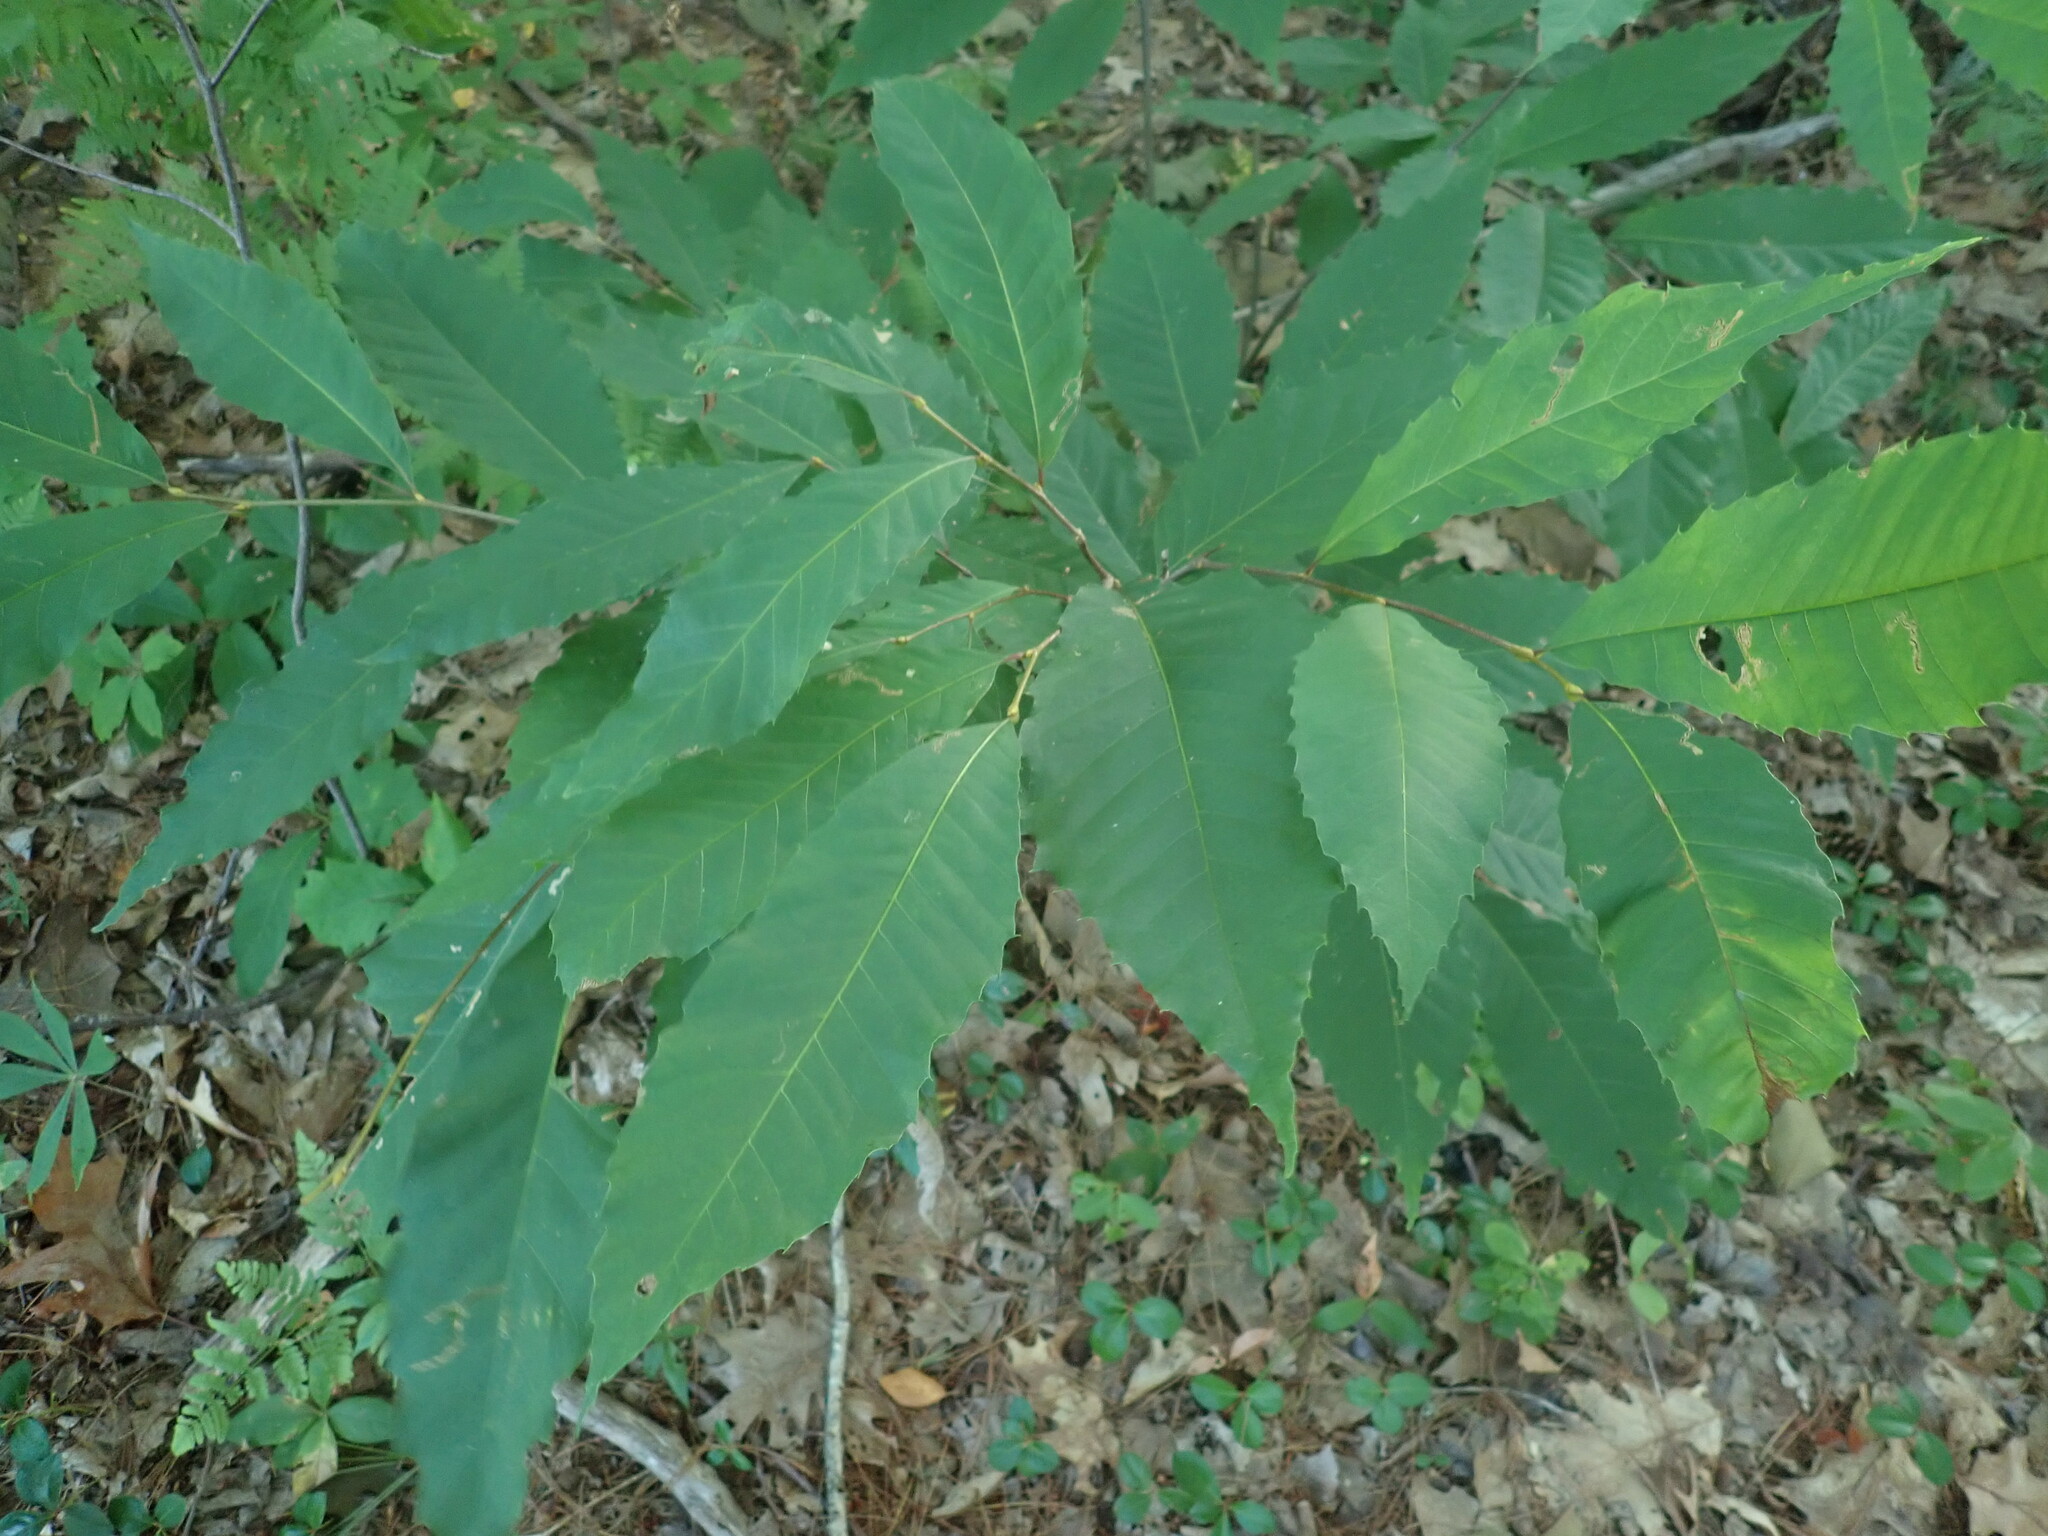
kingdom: Plantae
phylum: Tracheophyta
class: Magnoliopsida
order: Fagales
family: Fagaceae
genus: Castanea
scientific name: Castanea dentata
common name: American chestnut
